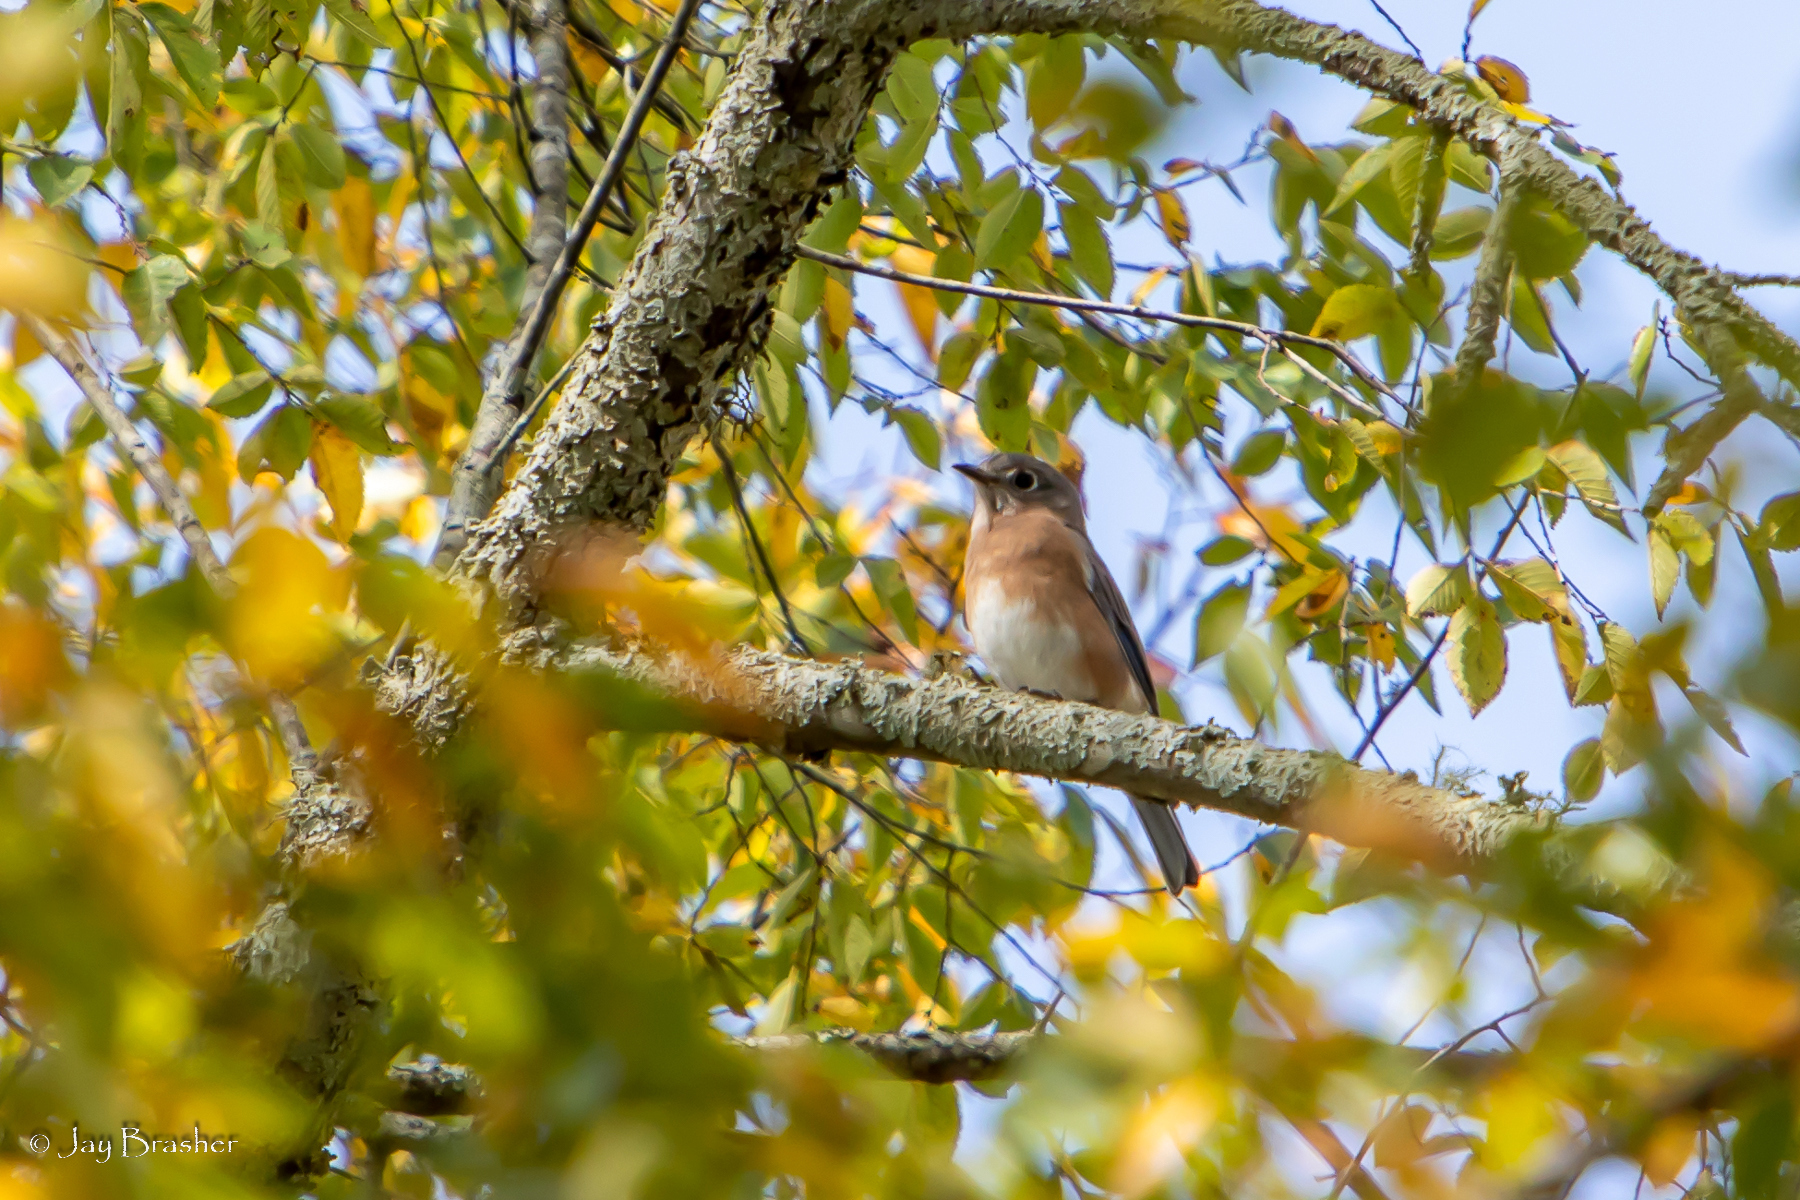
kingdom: Animalia
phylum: Chordata
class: Aves
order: Passeriformes
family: Turdidae
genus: Sialia
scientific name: Sialia sialis
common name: Eastern bluebird
